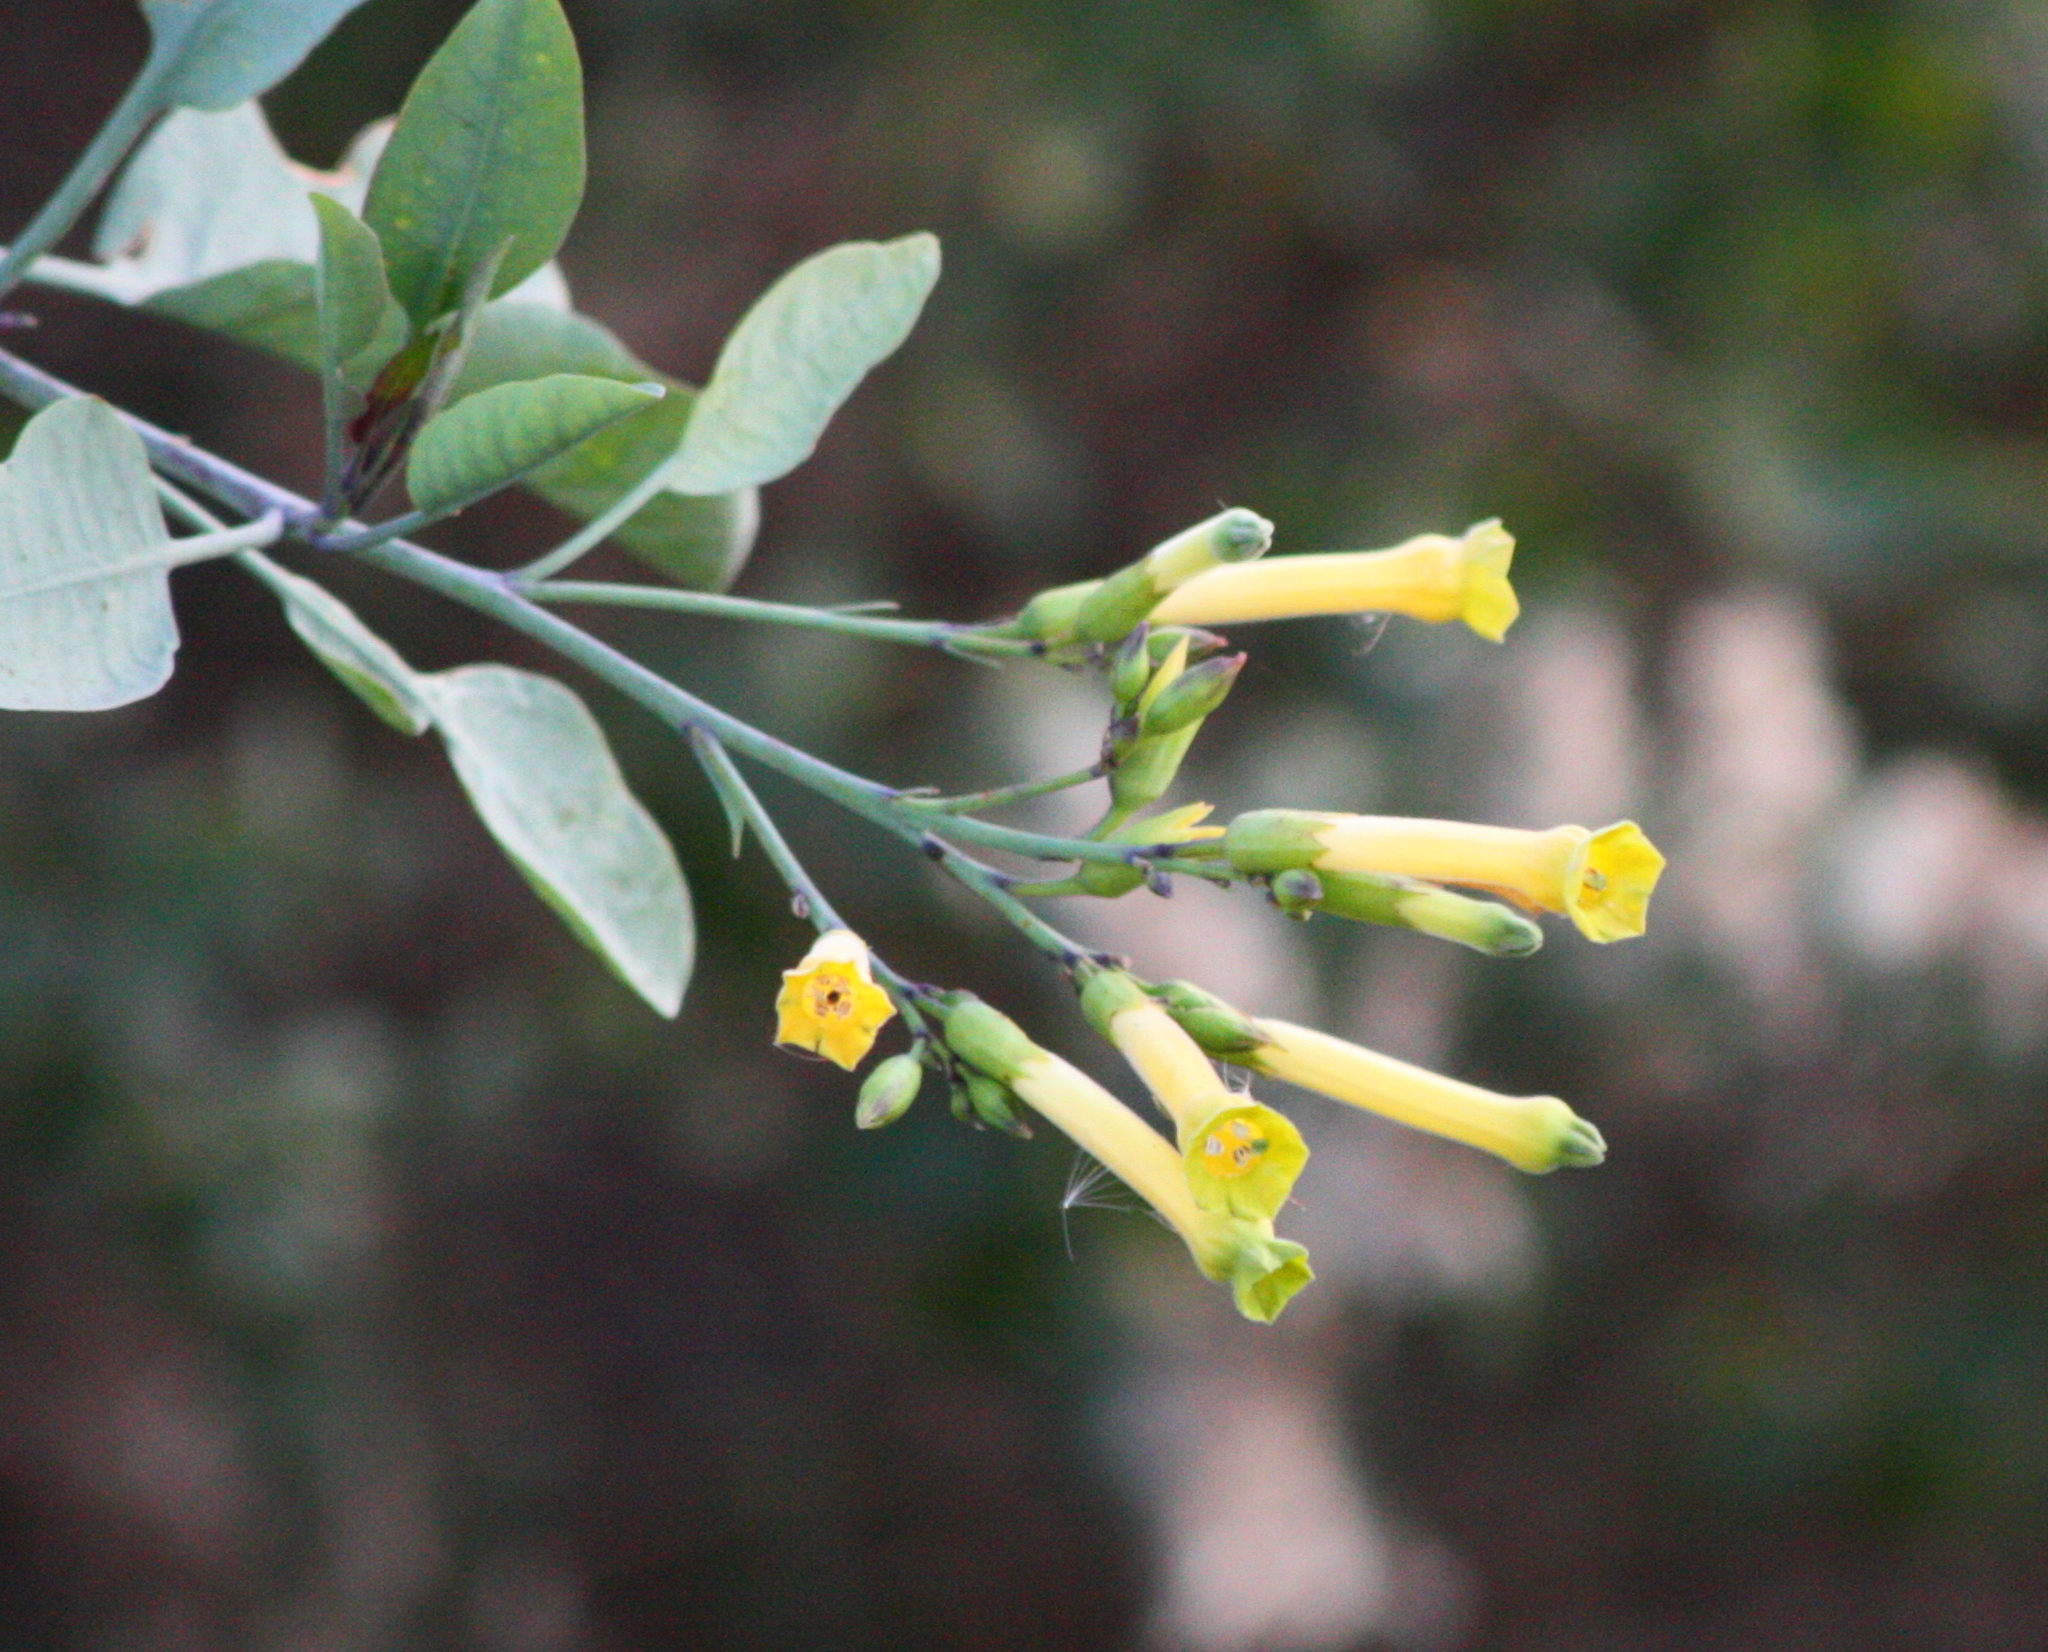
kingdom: Plantae
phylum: Tracheophyta
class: Magnoliopsida
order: Solanales
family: Solanaceae
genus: Nicotiana
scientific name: Nicotiana glauca
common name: Tree tobacco
